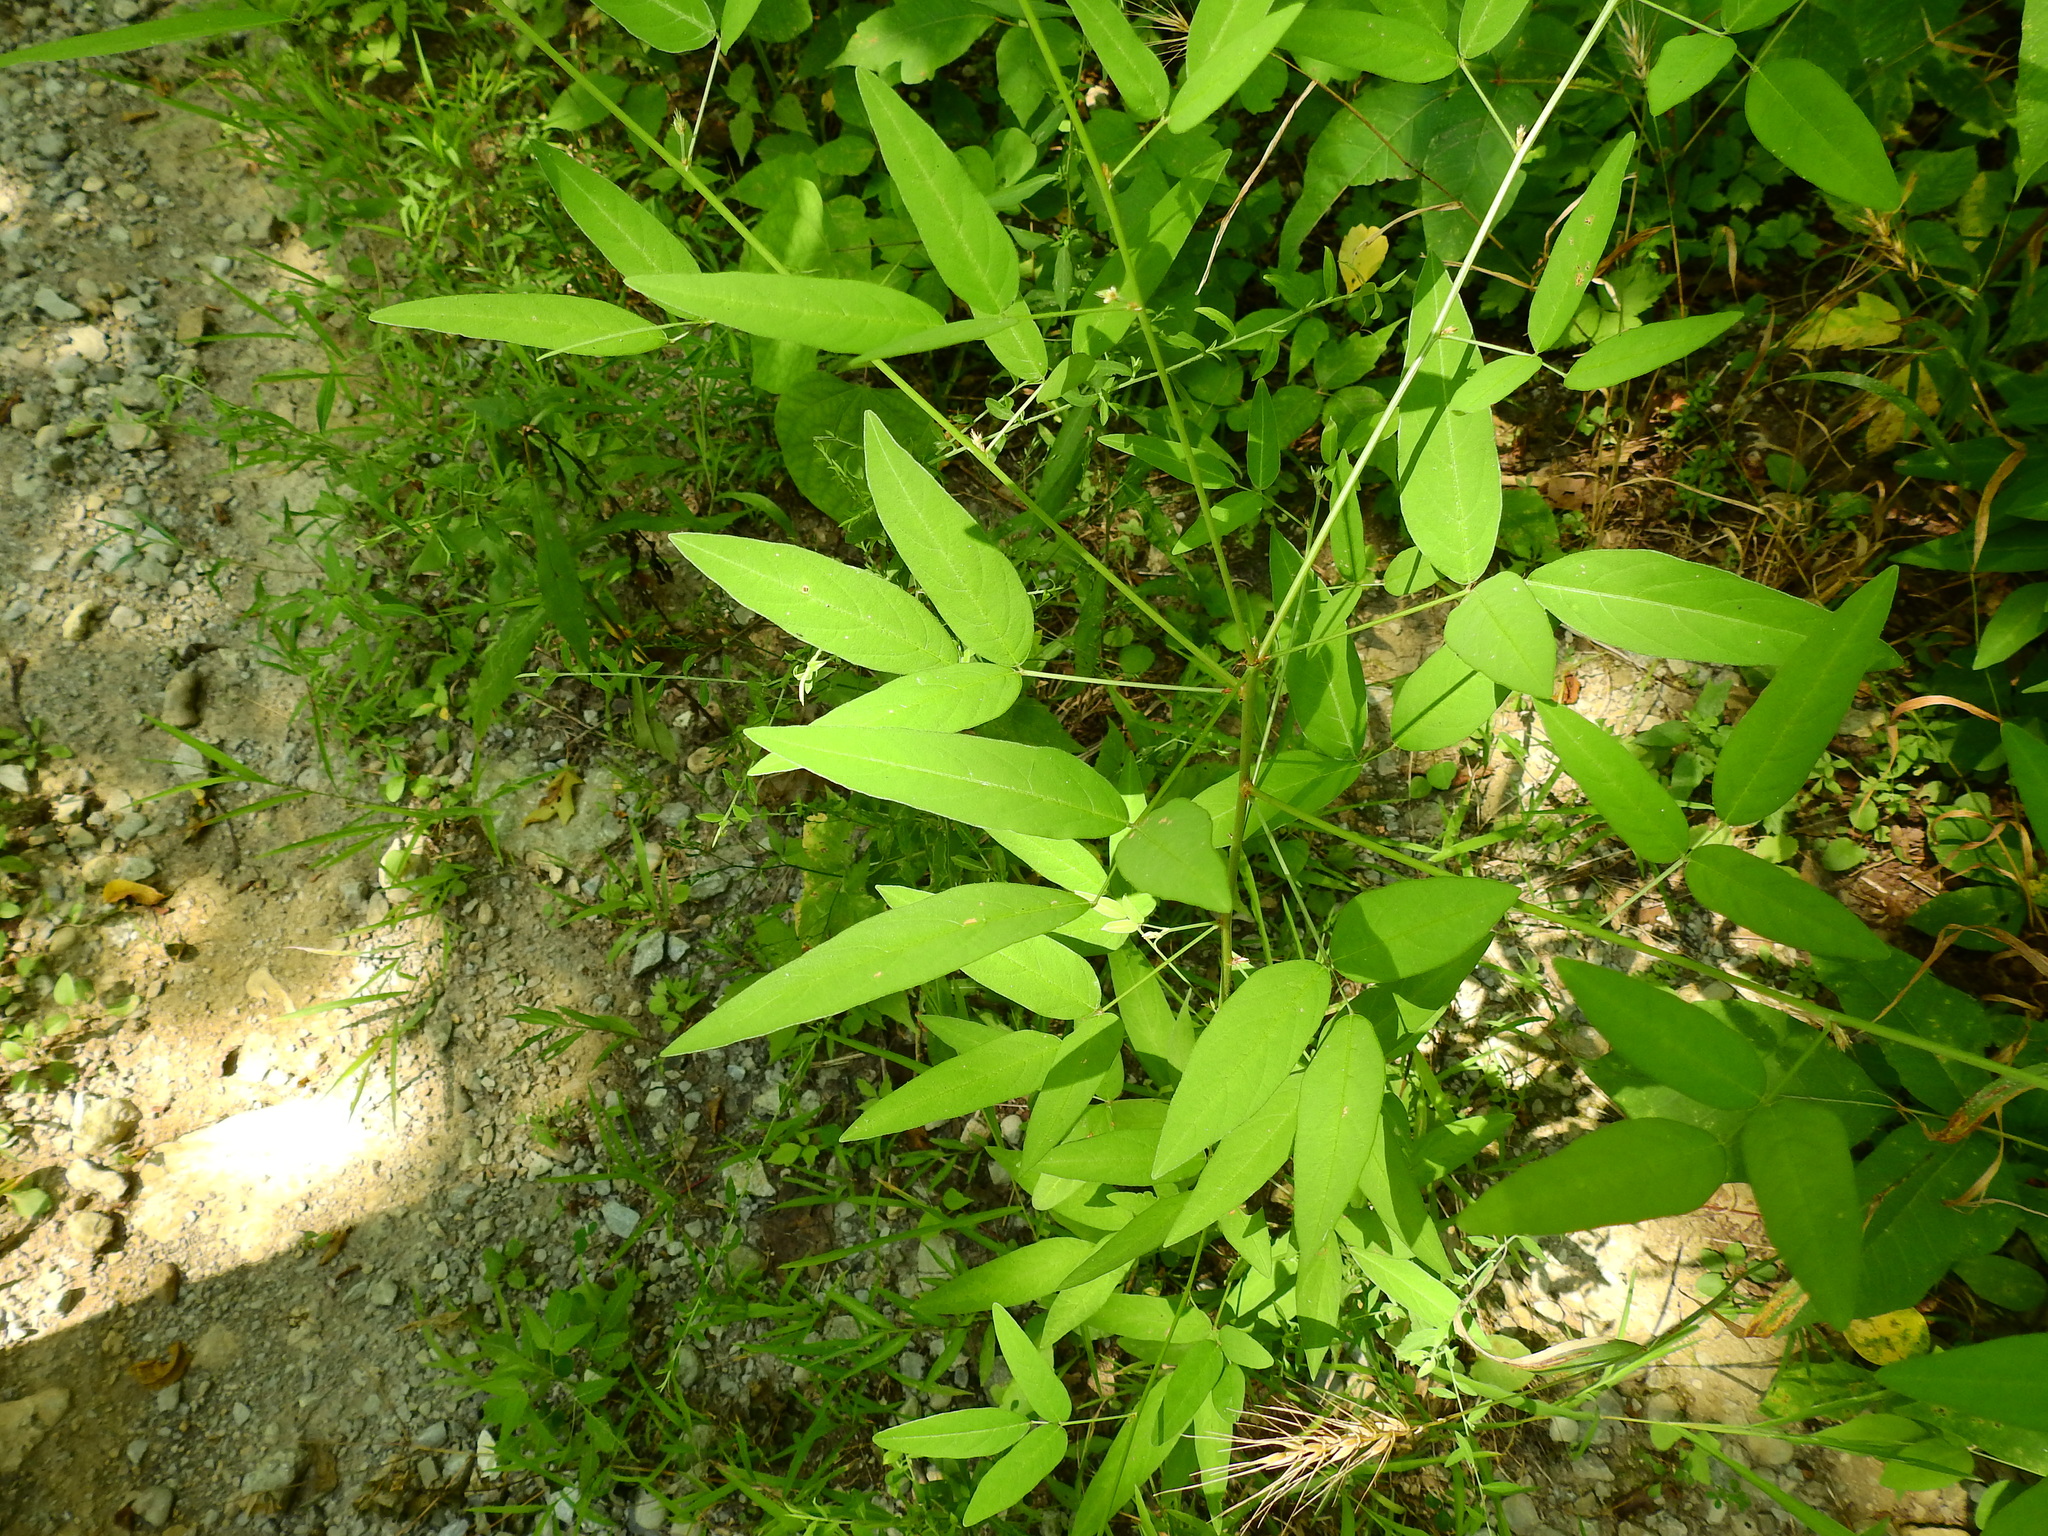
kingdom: Plantae
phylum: Tracheophyta
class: Magnoliopsida
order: Fabales
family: Fabaceae
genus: Desmodium
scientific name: Desmodium paniculatum
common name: Panicled tick-clover
